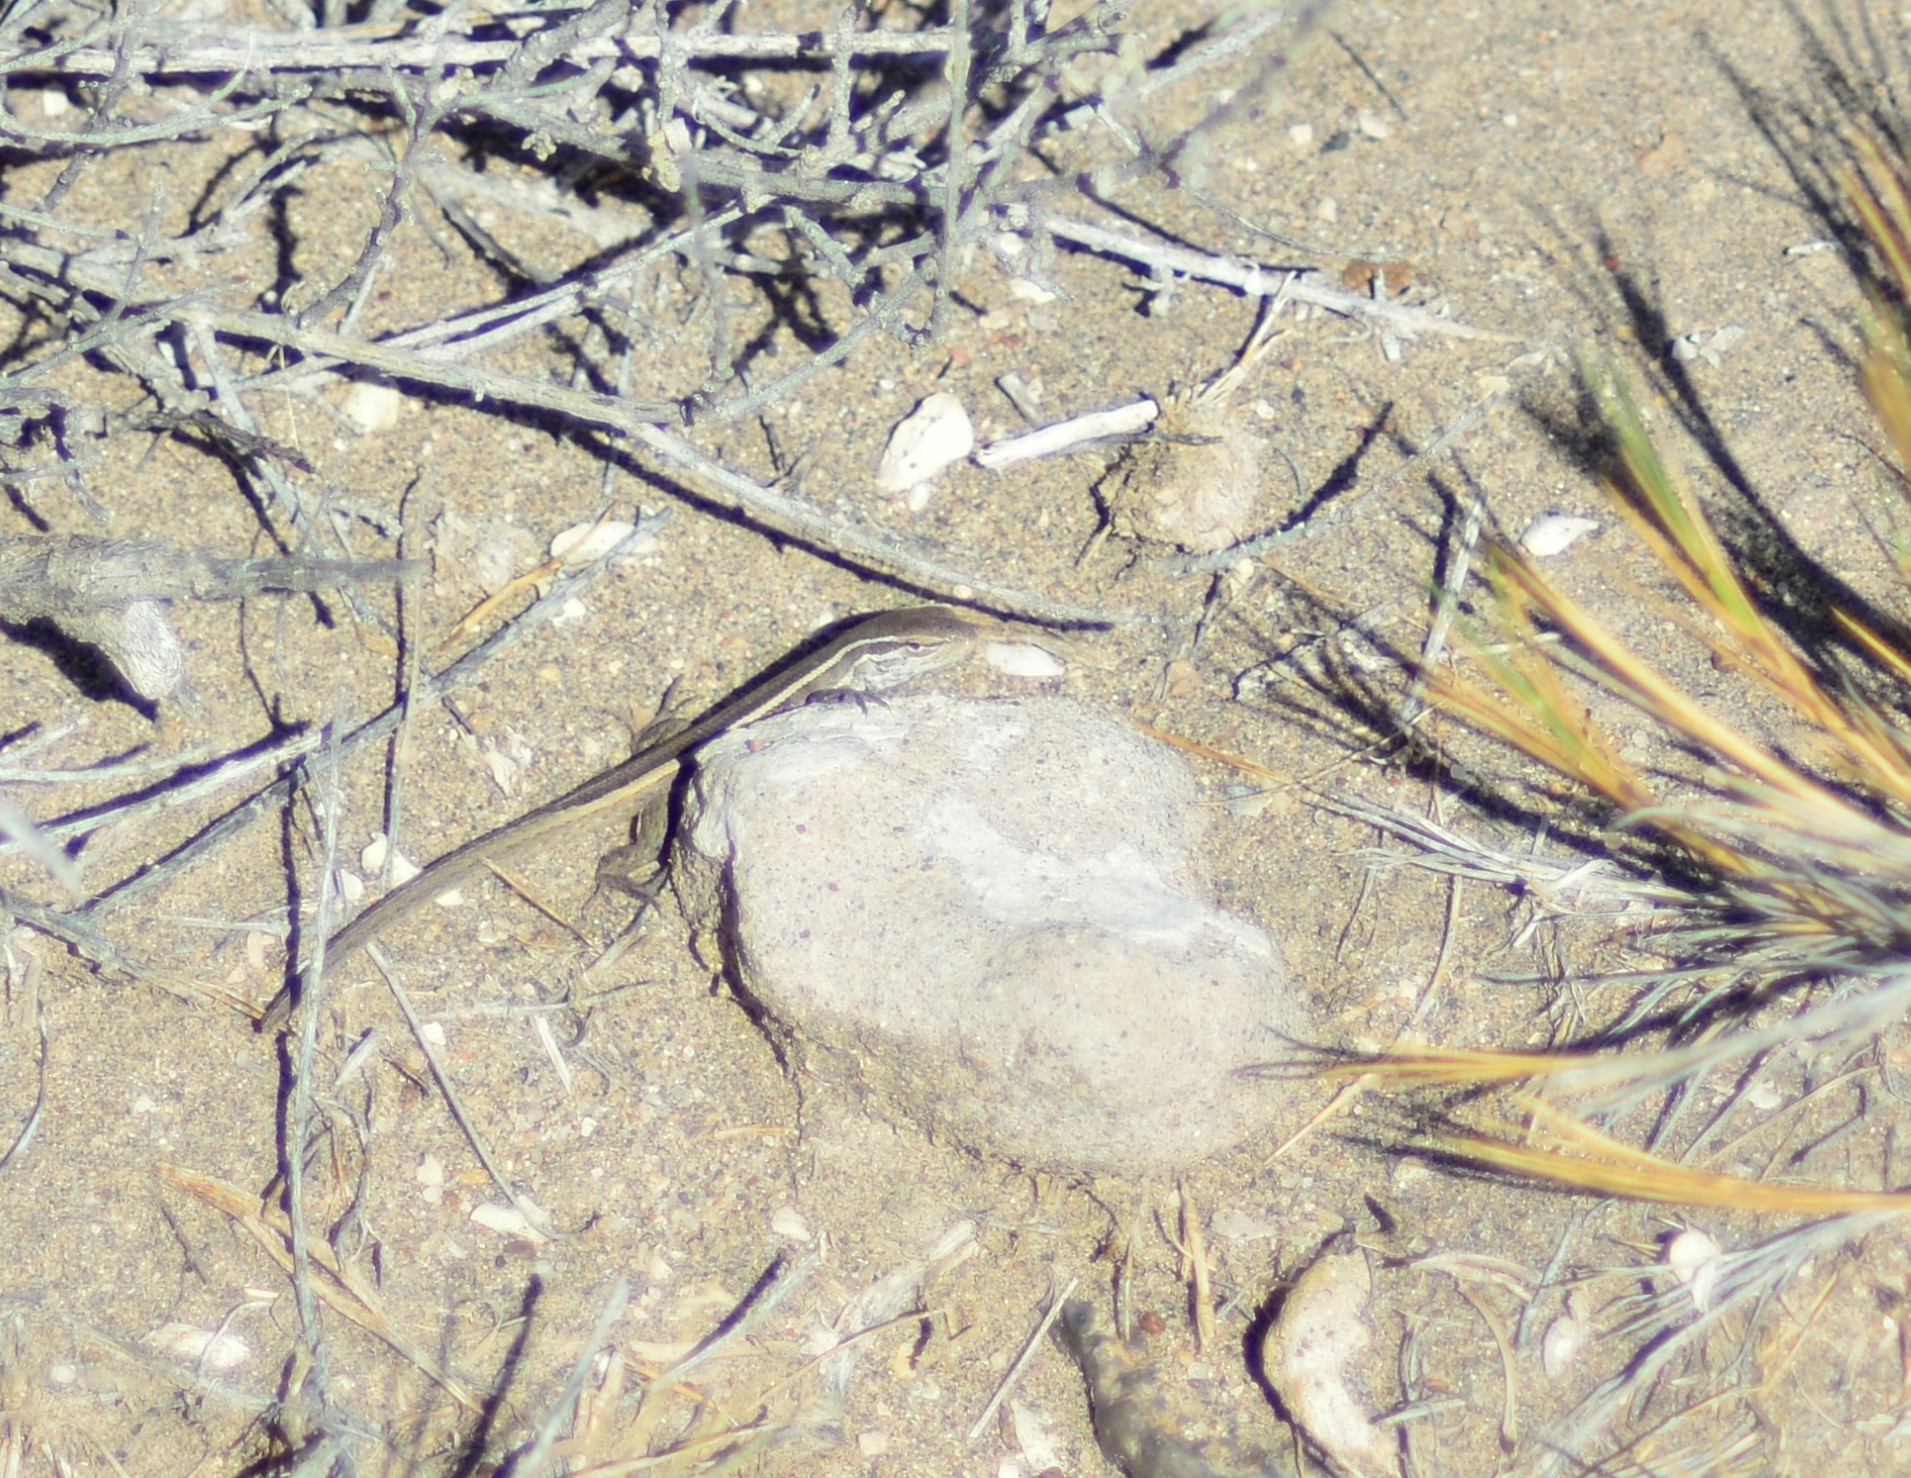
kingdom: Animalia
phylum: Chordata
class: Squamata
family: Liolaemidae
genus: Liolaemus
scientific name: Liolaemus gracilis
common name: Graceful tree iguana
